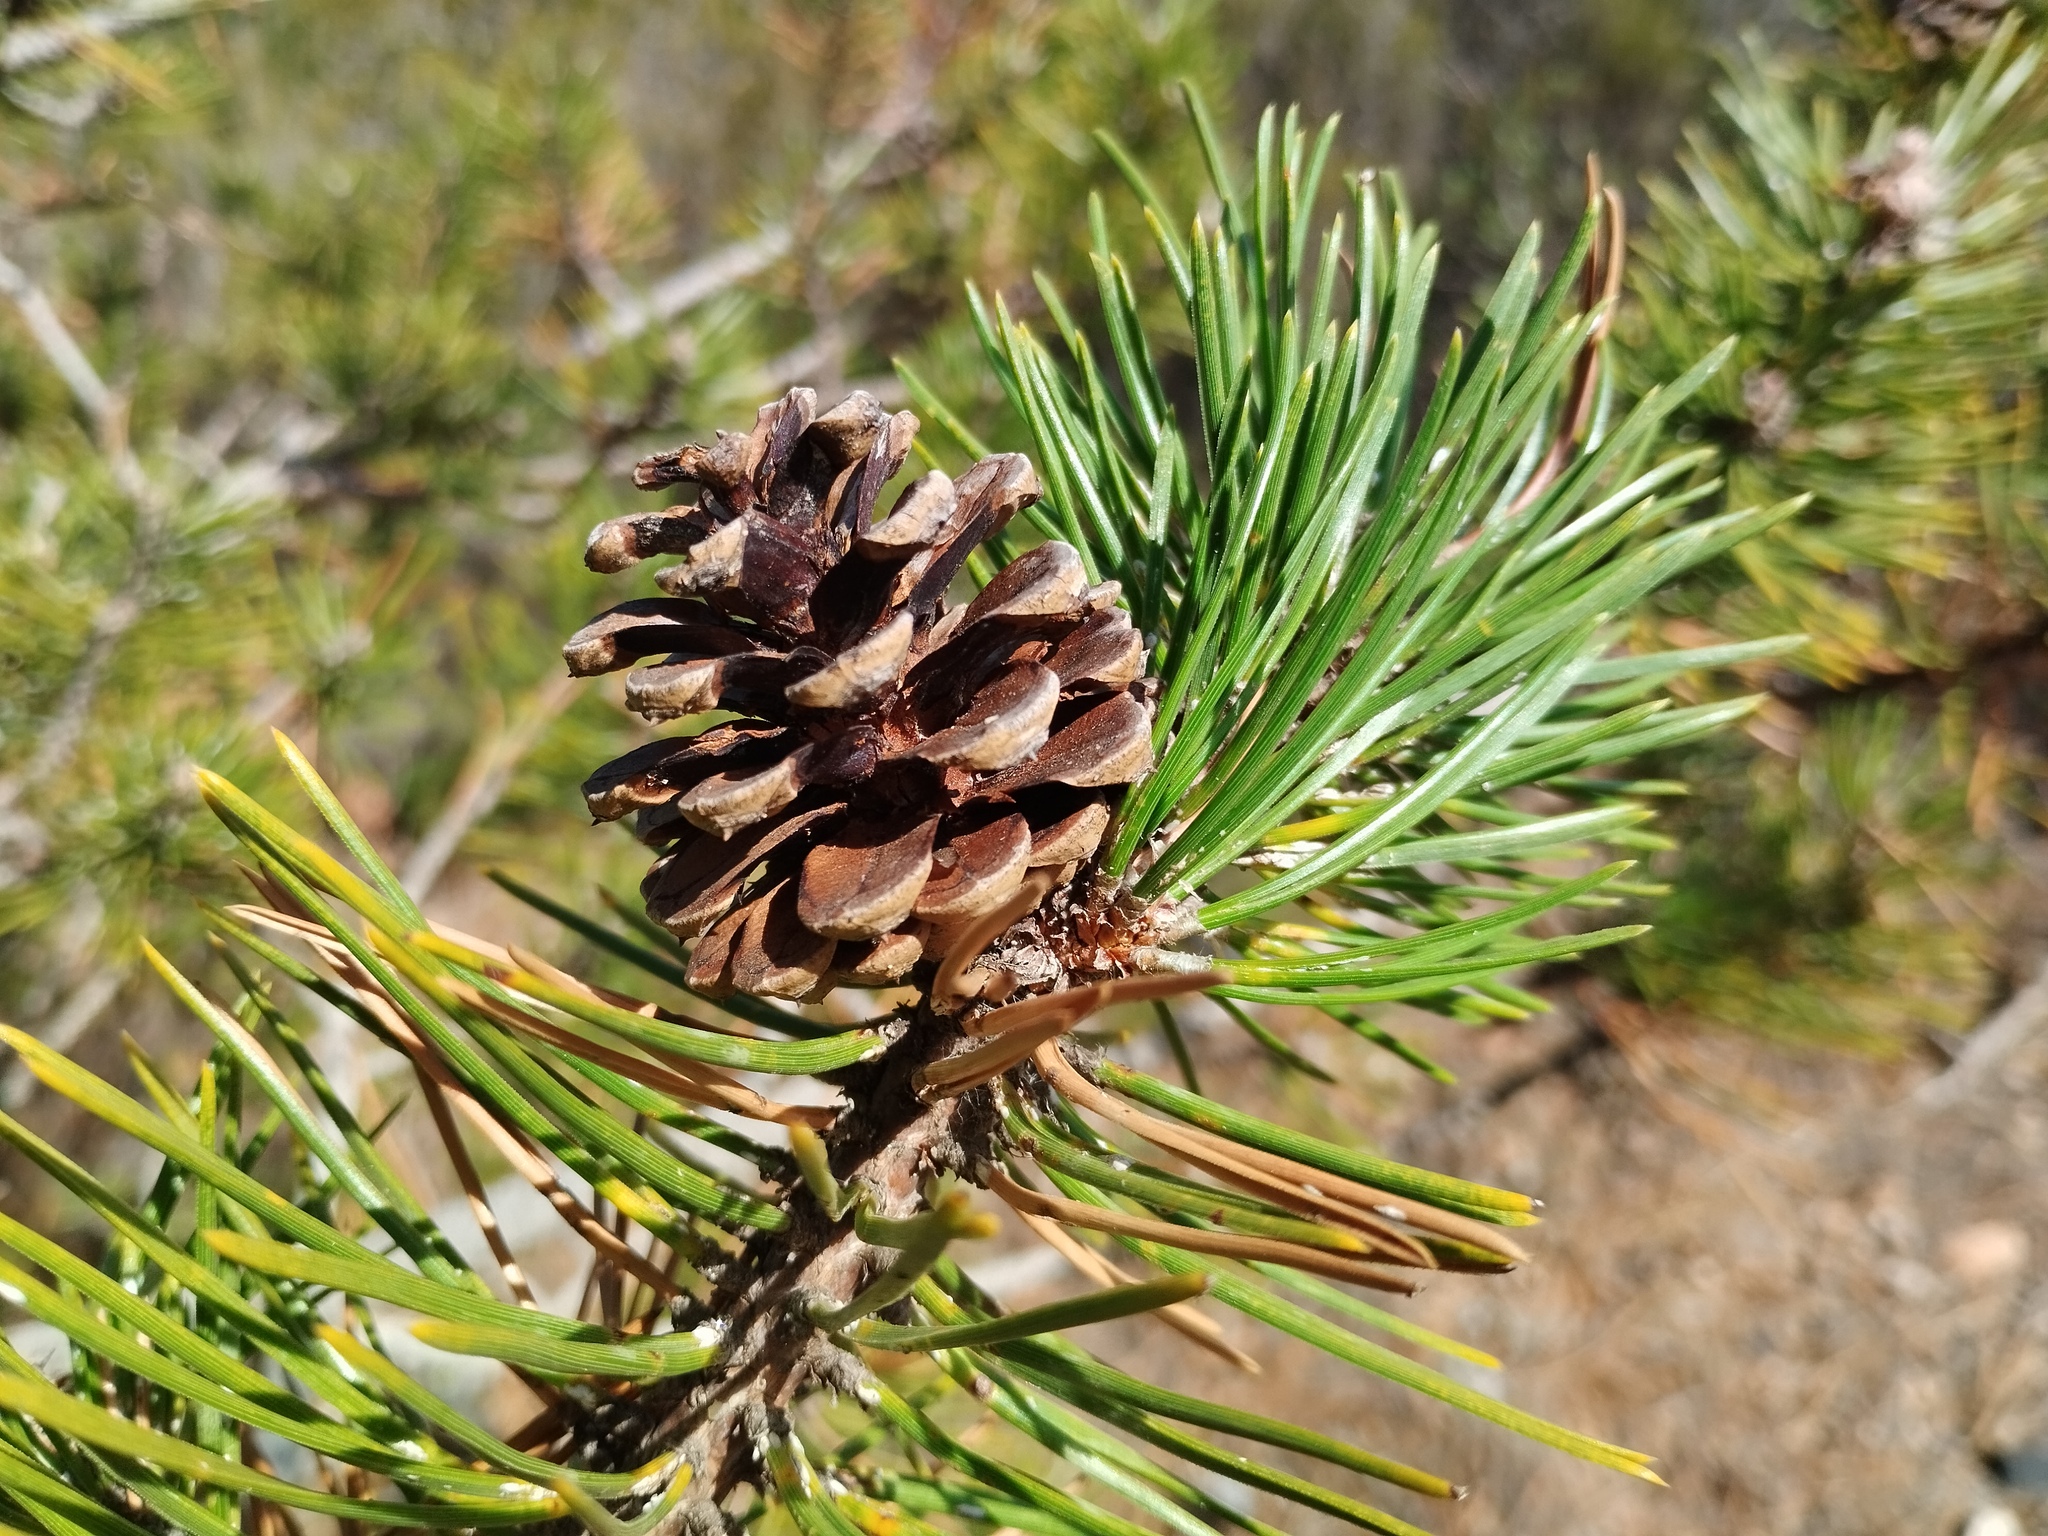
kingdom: Plantae
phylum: Tracheophyta
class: Pinopsida
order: Pinales
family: Pinaceae
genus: Pinus
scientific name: Pinus sylvestris
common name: Scots pine
